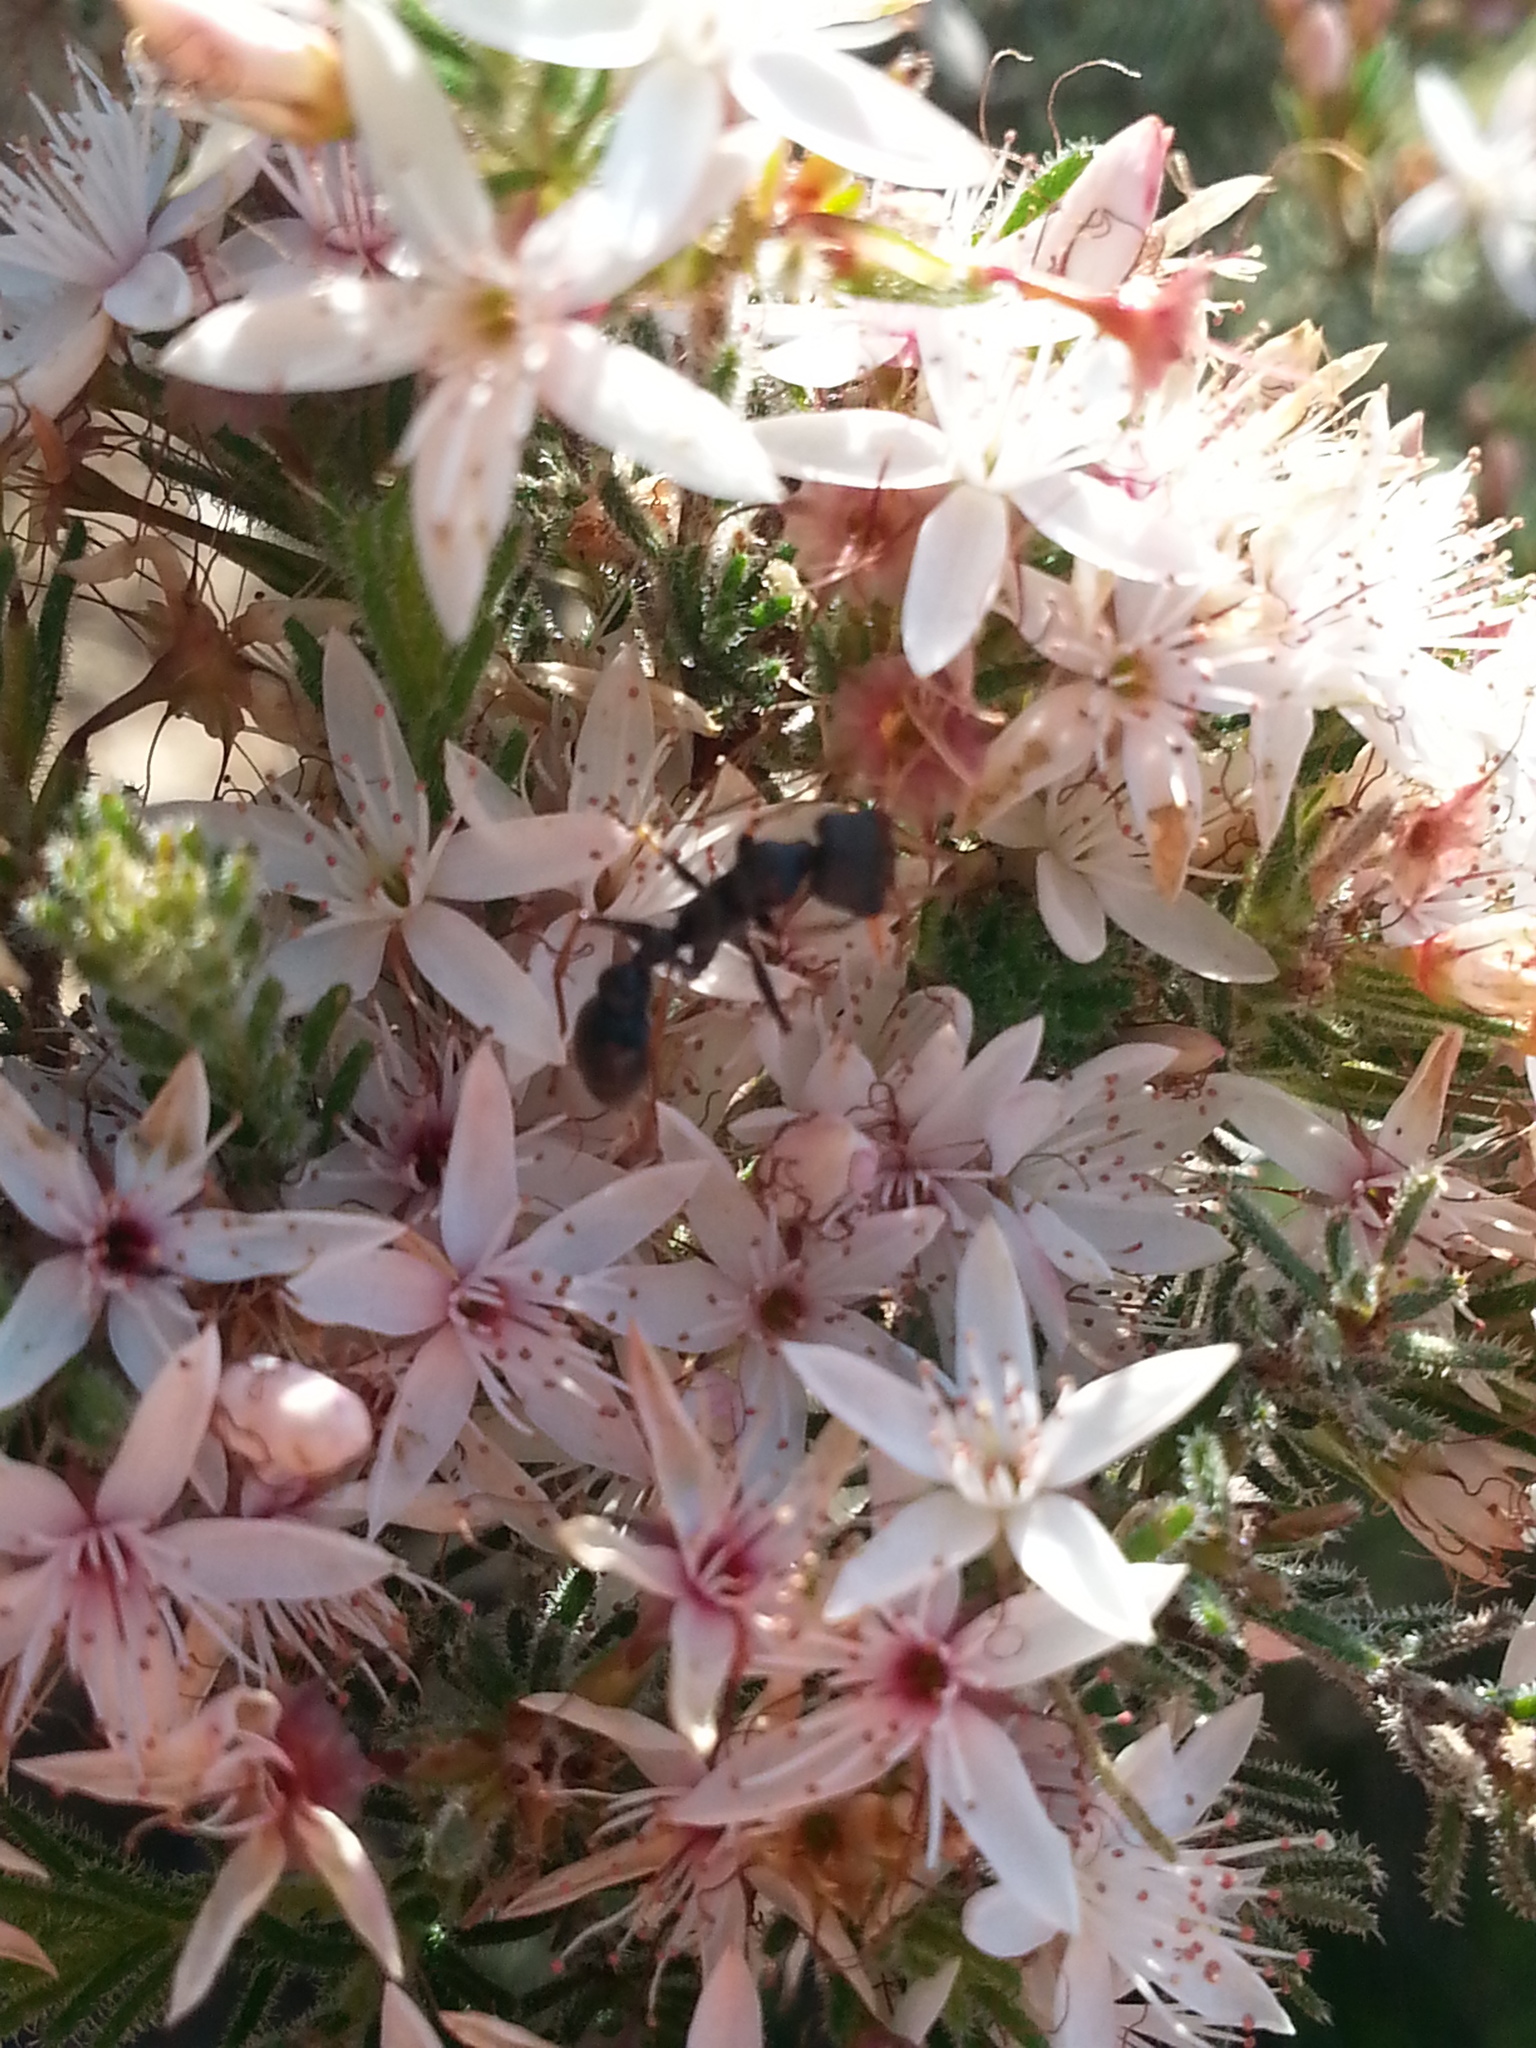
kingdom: Plantae
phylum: Tracheophyta
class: Magnoliopsida
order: Myrtales
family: Myrtaceae
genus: Calytrix
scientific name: Calytrix tetragona
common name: Common fringe myrtle
